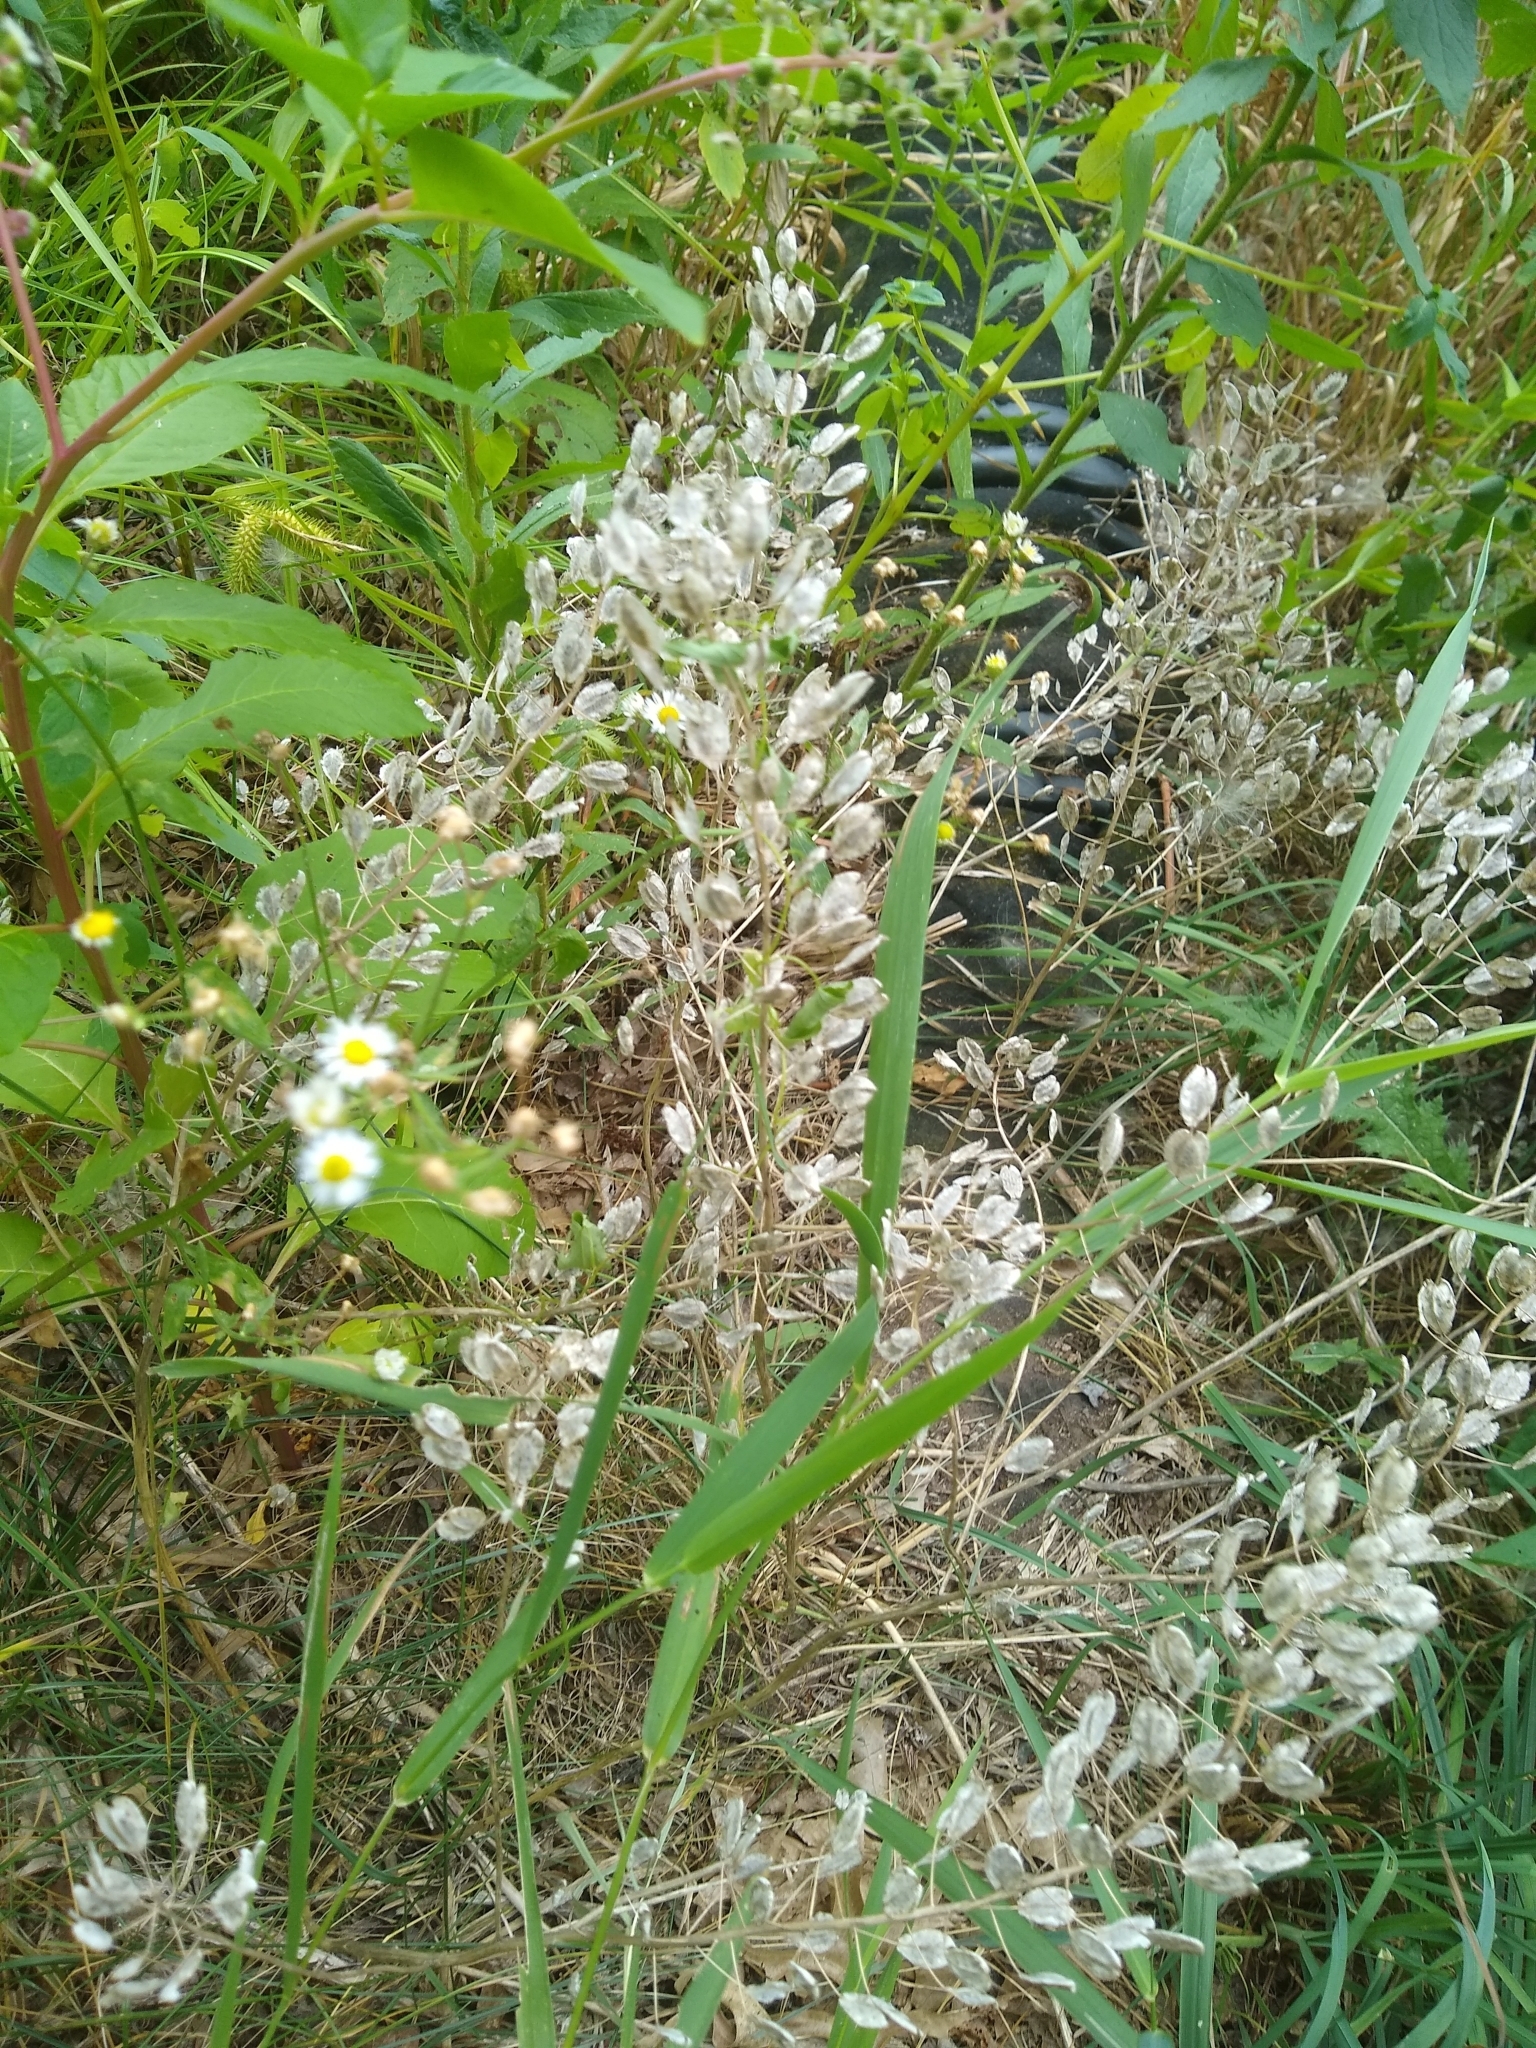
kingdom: Plantae
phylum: Tracheophyta
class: Magnoliopsida
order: Brassicales
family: Brassicaceae
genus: Thlaspi
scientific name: Thlaspi arvense
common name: Field pennycress
